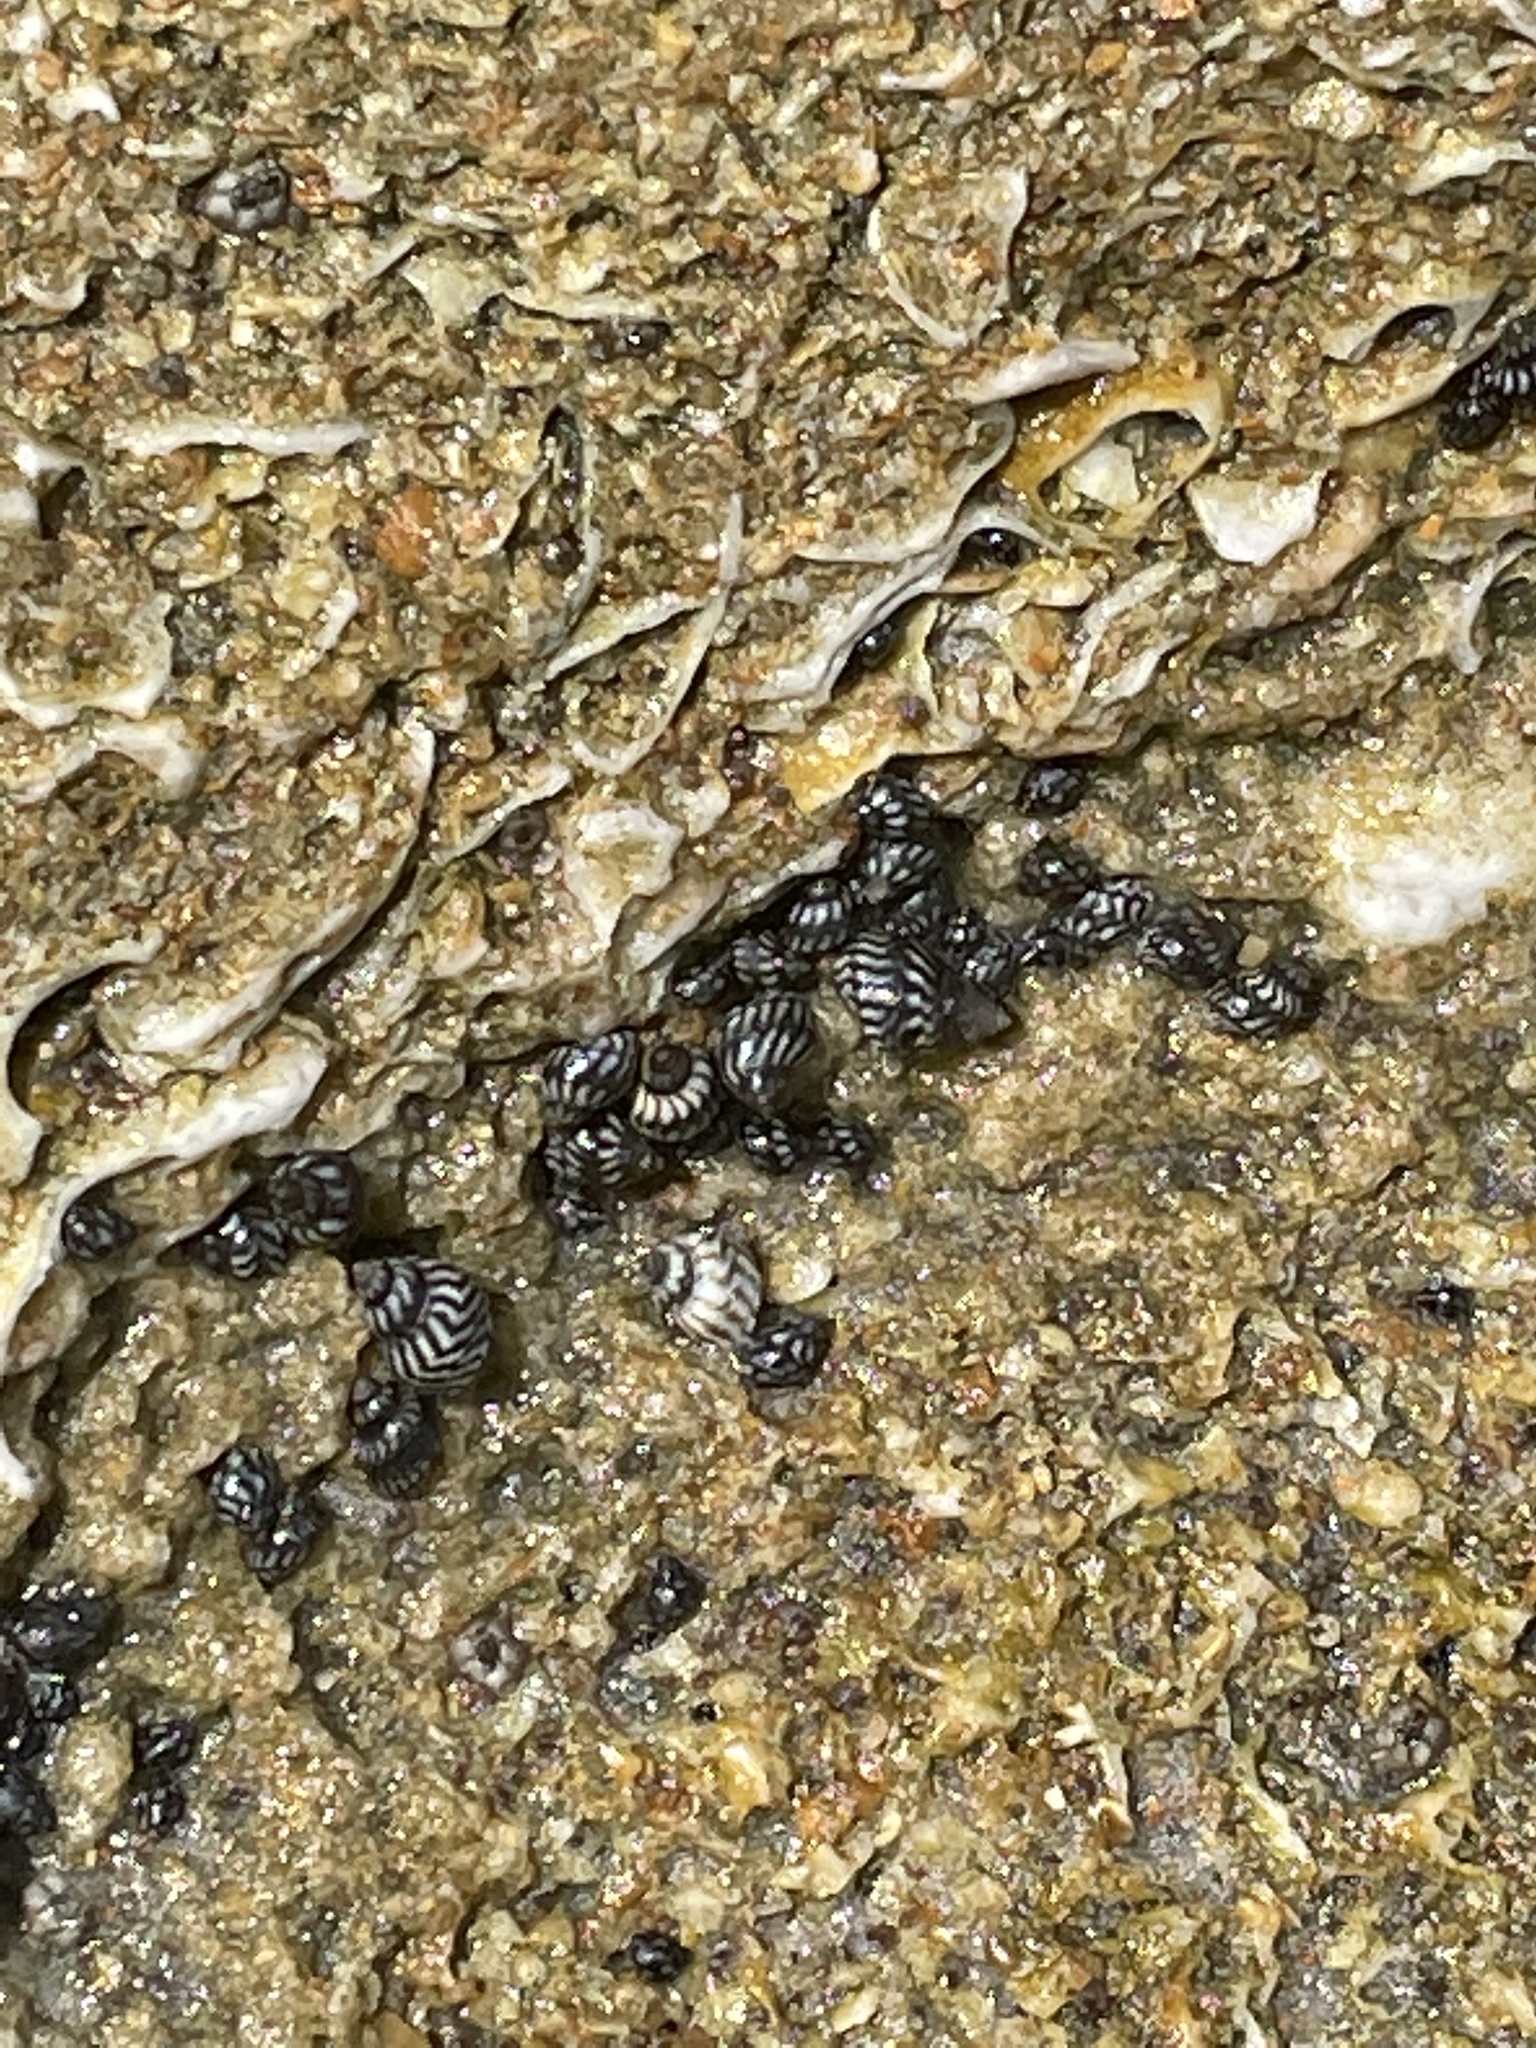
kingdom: Animalia
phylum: Mollusca
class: Gastropoda
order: Littorinimorpha
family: Littorinidae
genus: Echinolittorina
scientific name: Echinolittorina placida
